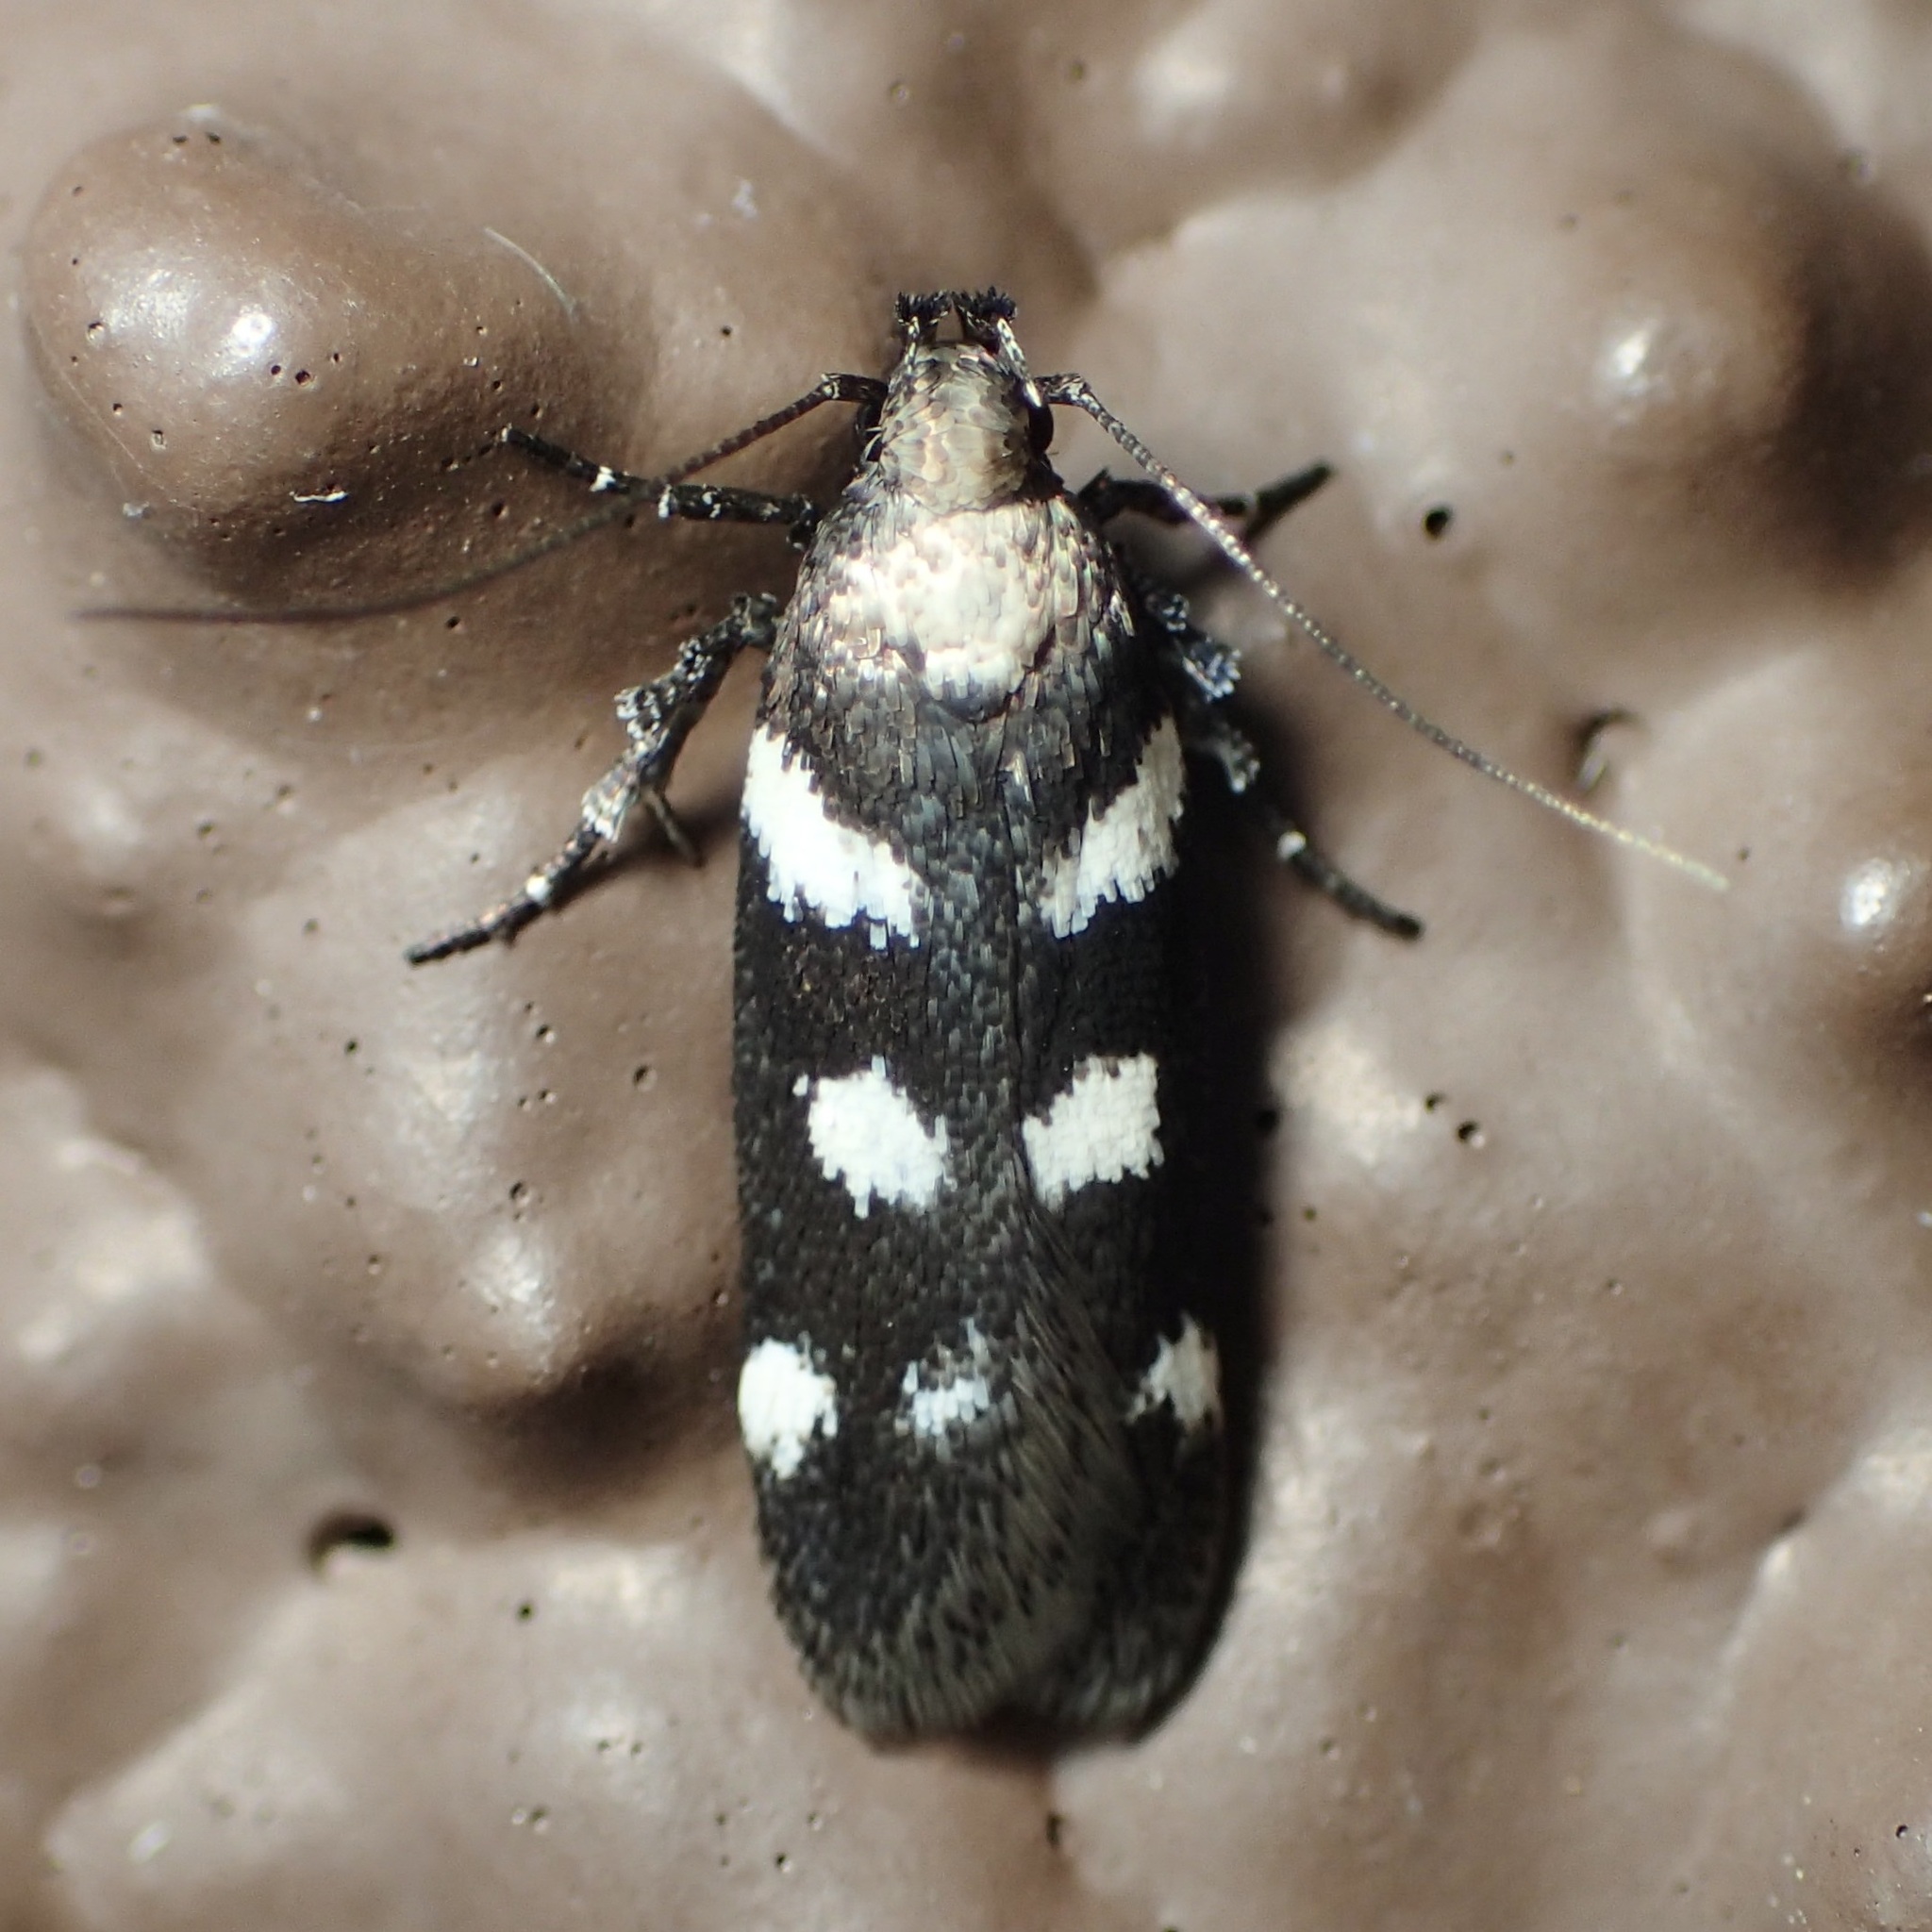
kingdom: Animalia
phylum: Arthropoda
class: Insecta
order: Lepidoptera
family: Gelechiidae
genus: Filatima
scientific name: Filatima arizonella
